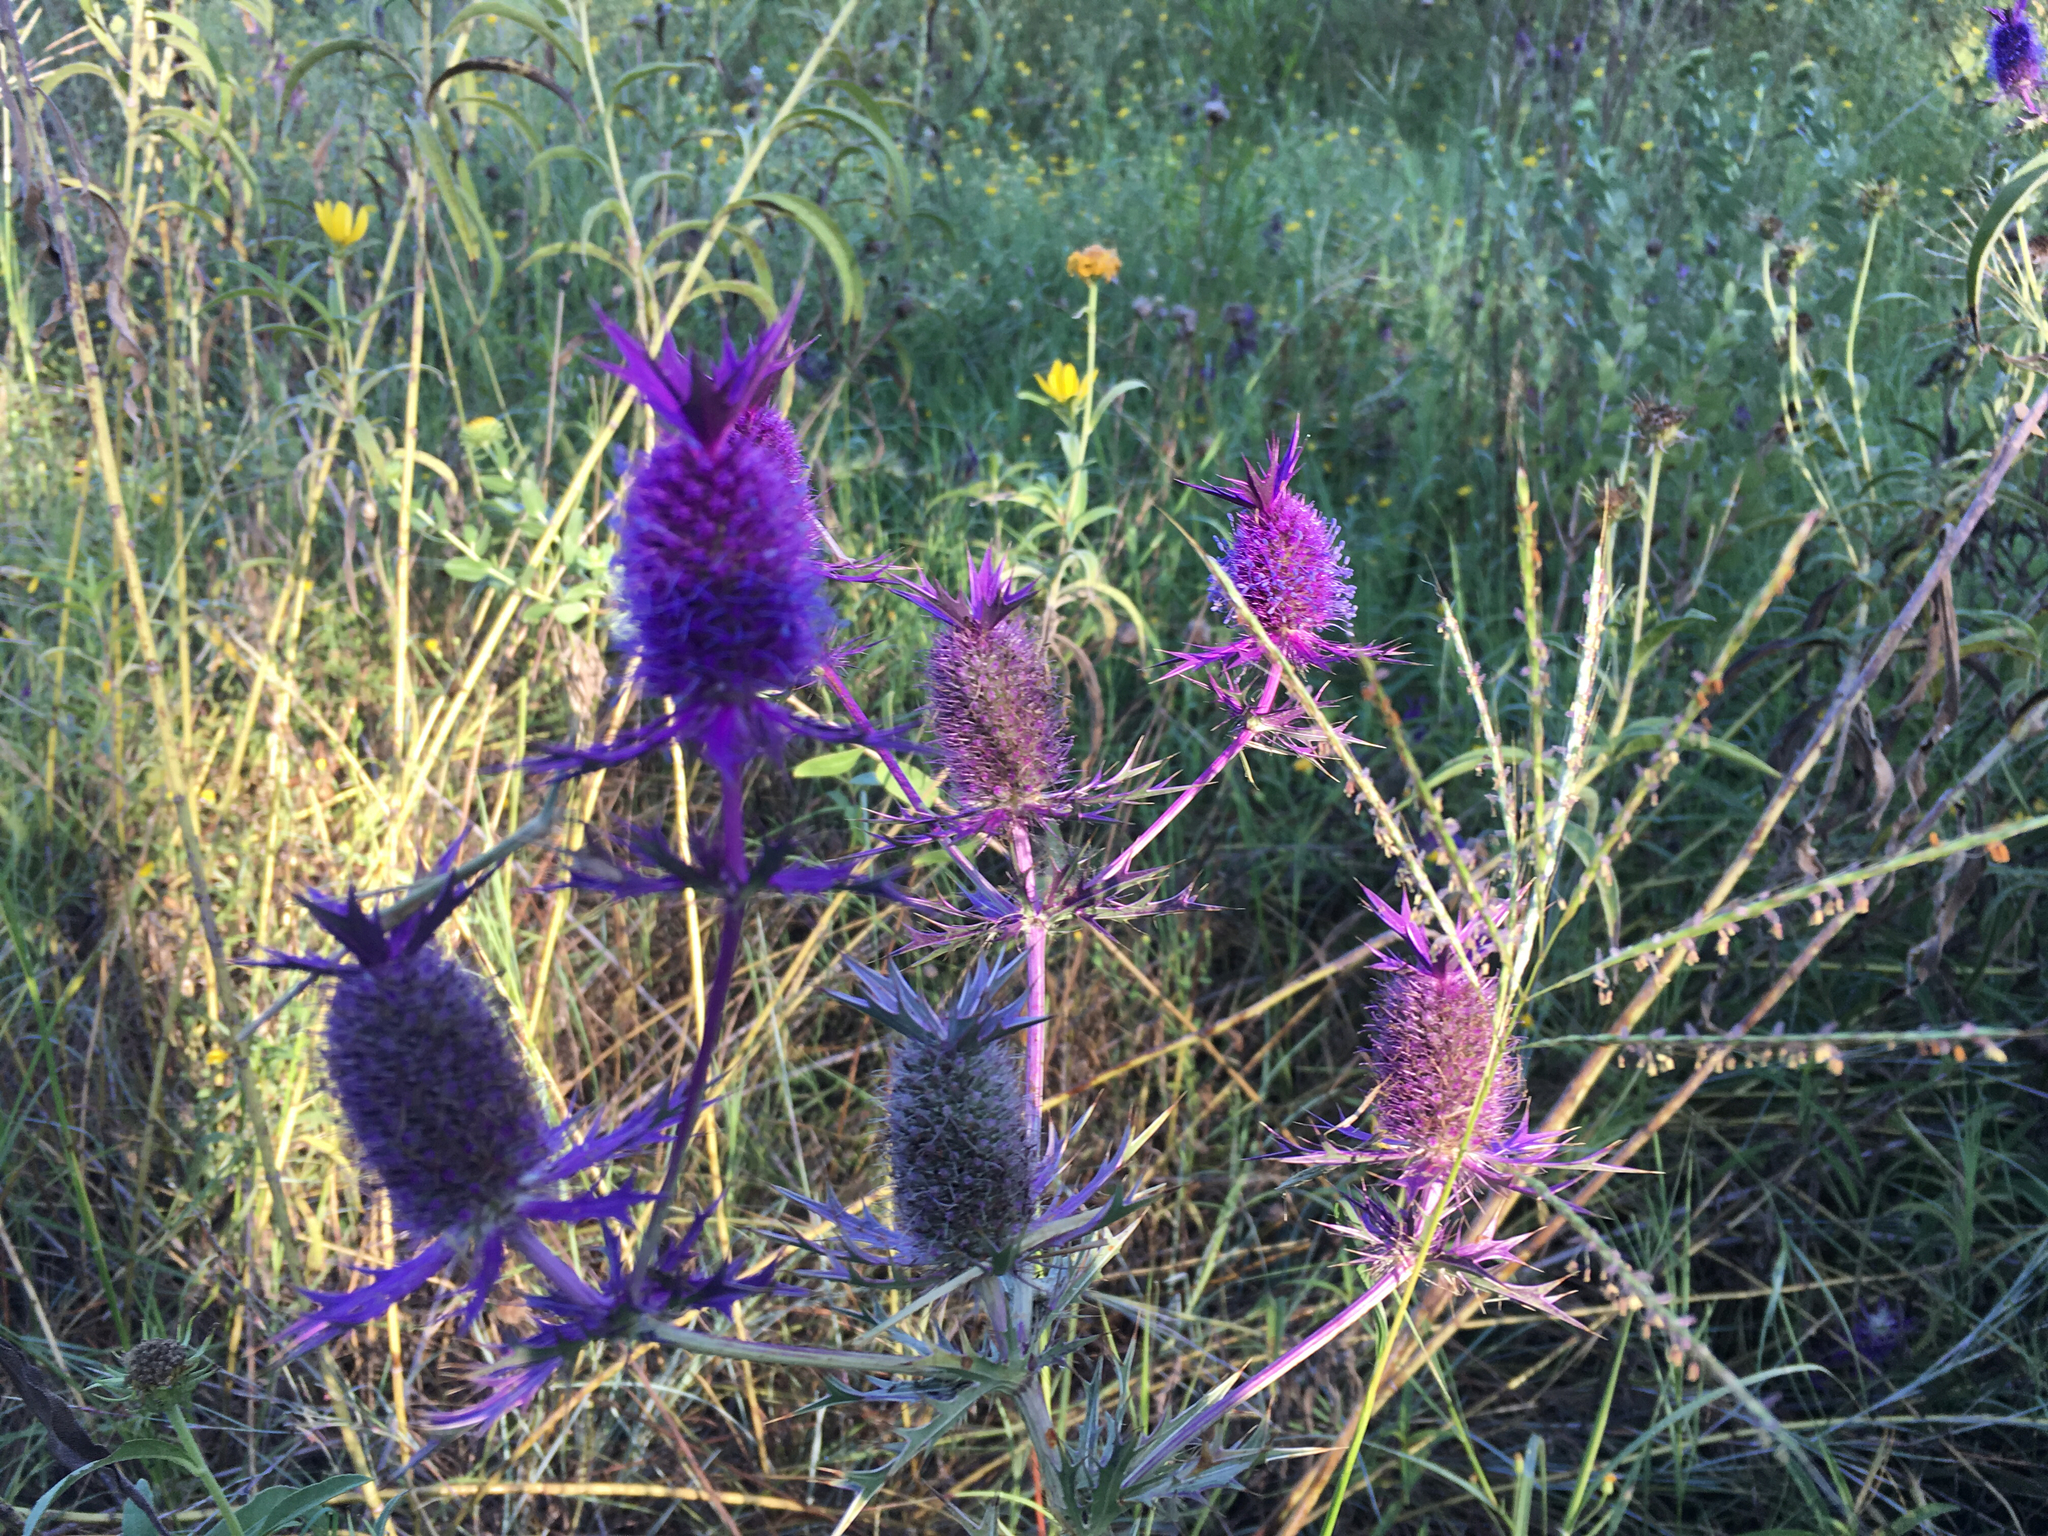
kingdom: Plantae
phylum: Tracheophyta
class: Magnoliopsida
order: Apiales
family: Apiaceae
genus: Eryngium
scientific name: Eryngium leavenworthii
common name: Leavenworth's eryngo
